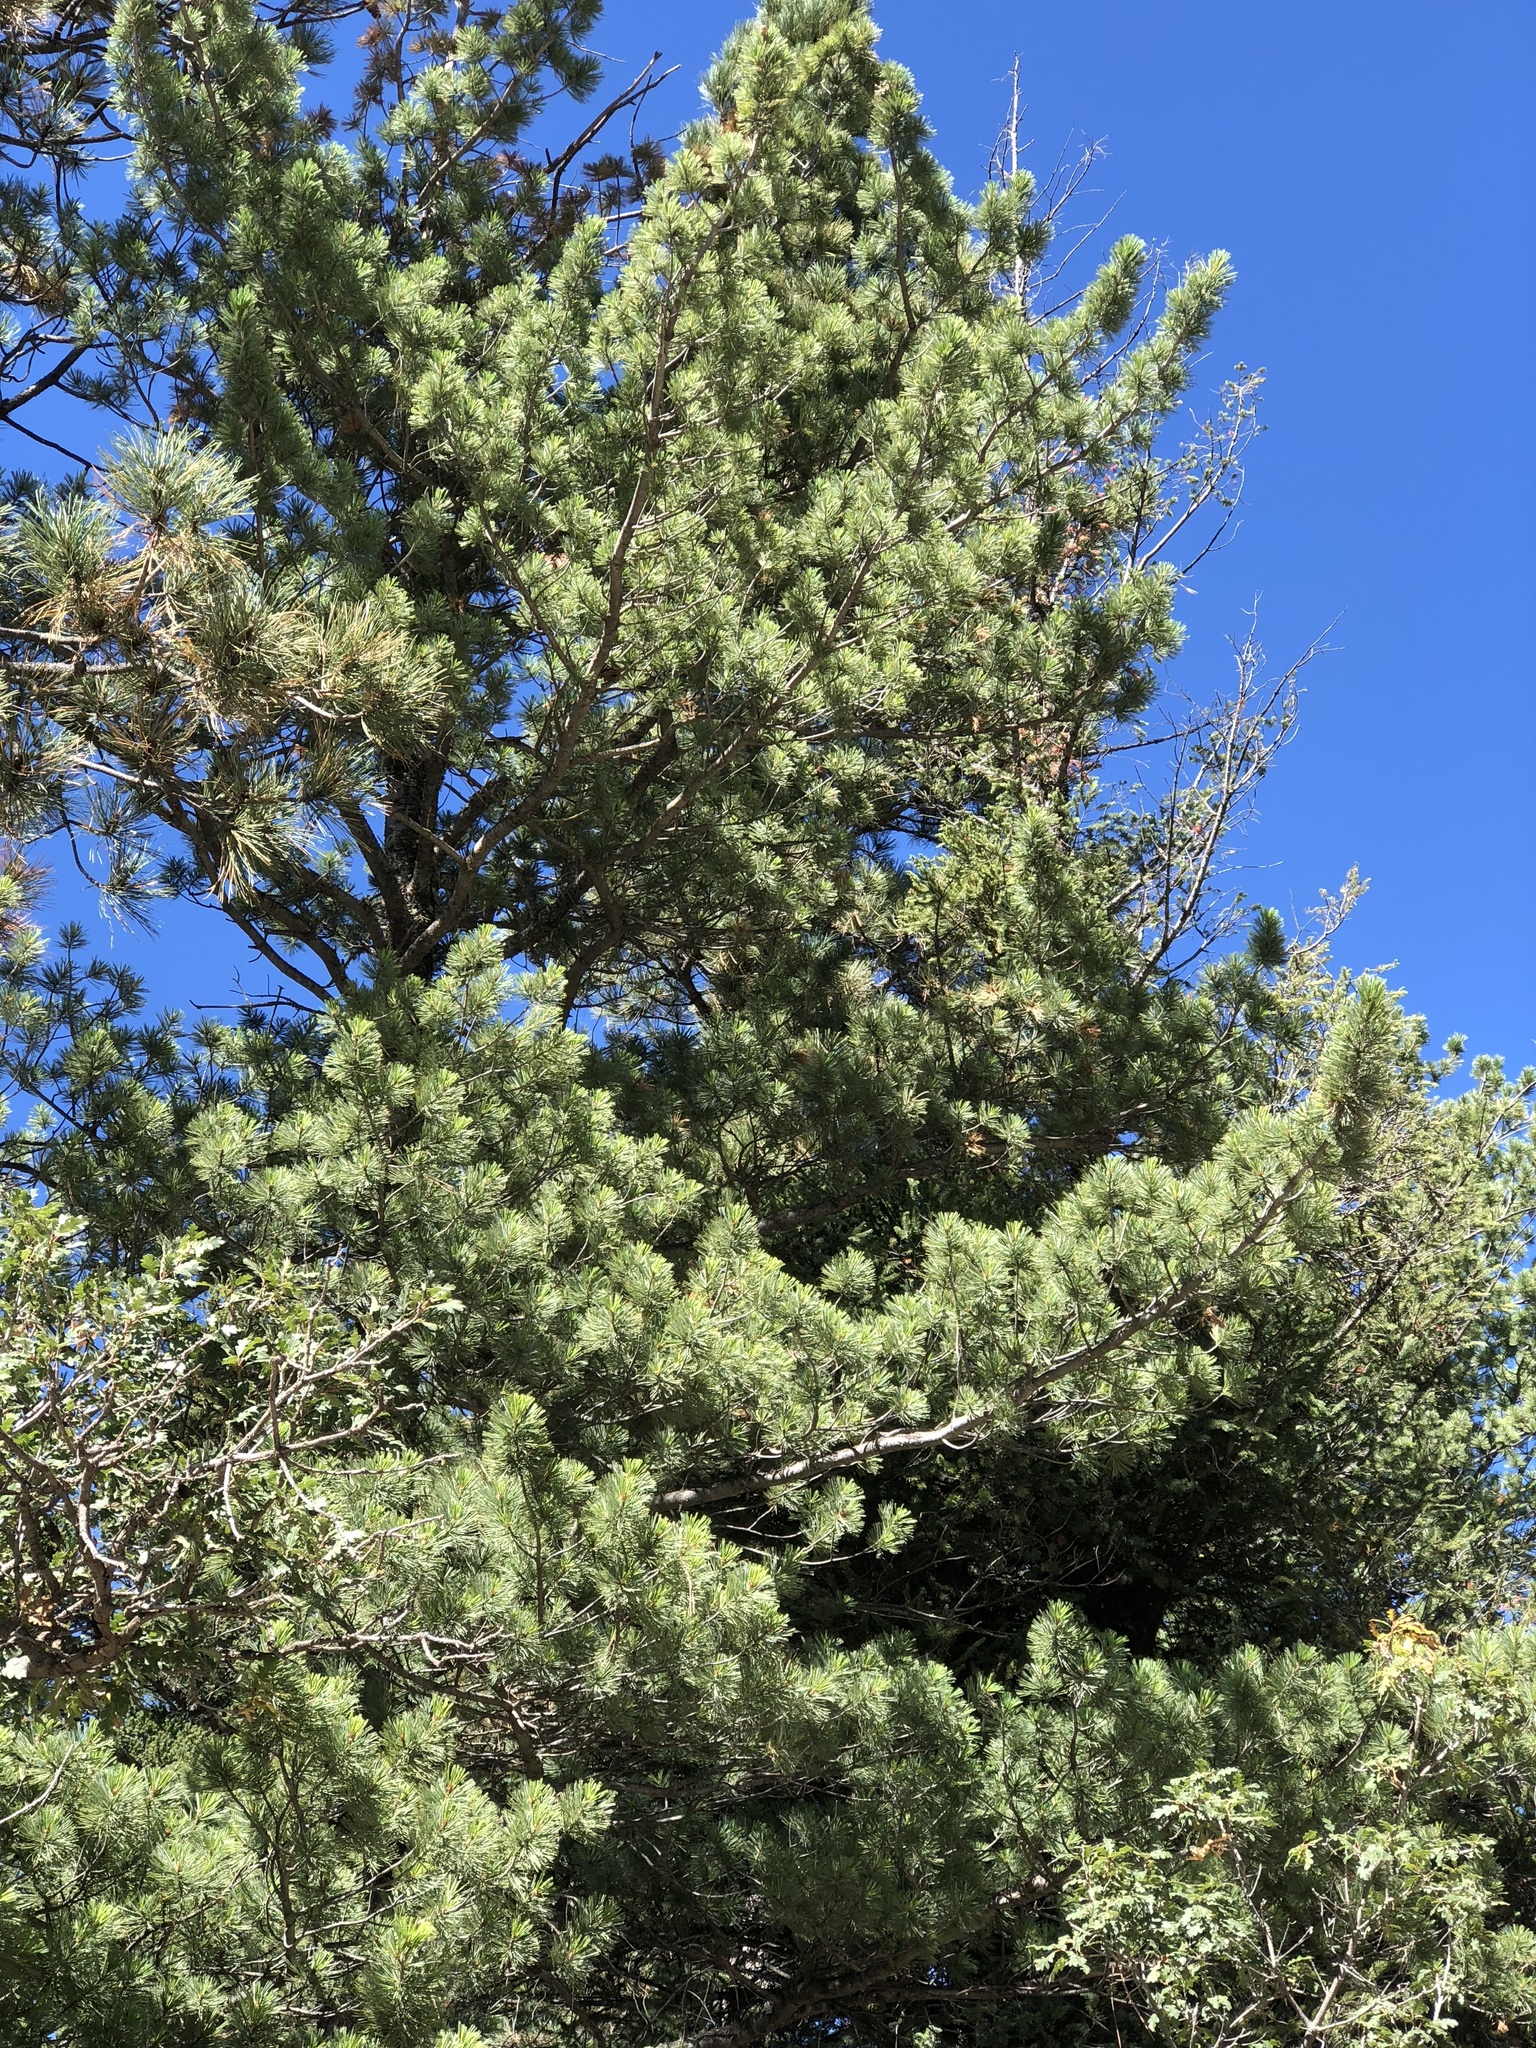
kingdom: Plantae
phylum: Tracheophyta
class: Pinopsida
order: Pinales
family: Pinaceae
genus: Pinus
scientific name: Pinus strobiformis
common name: Southwestern white pine
